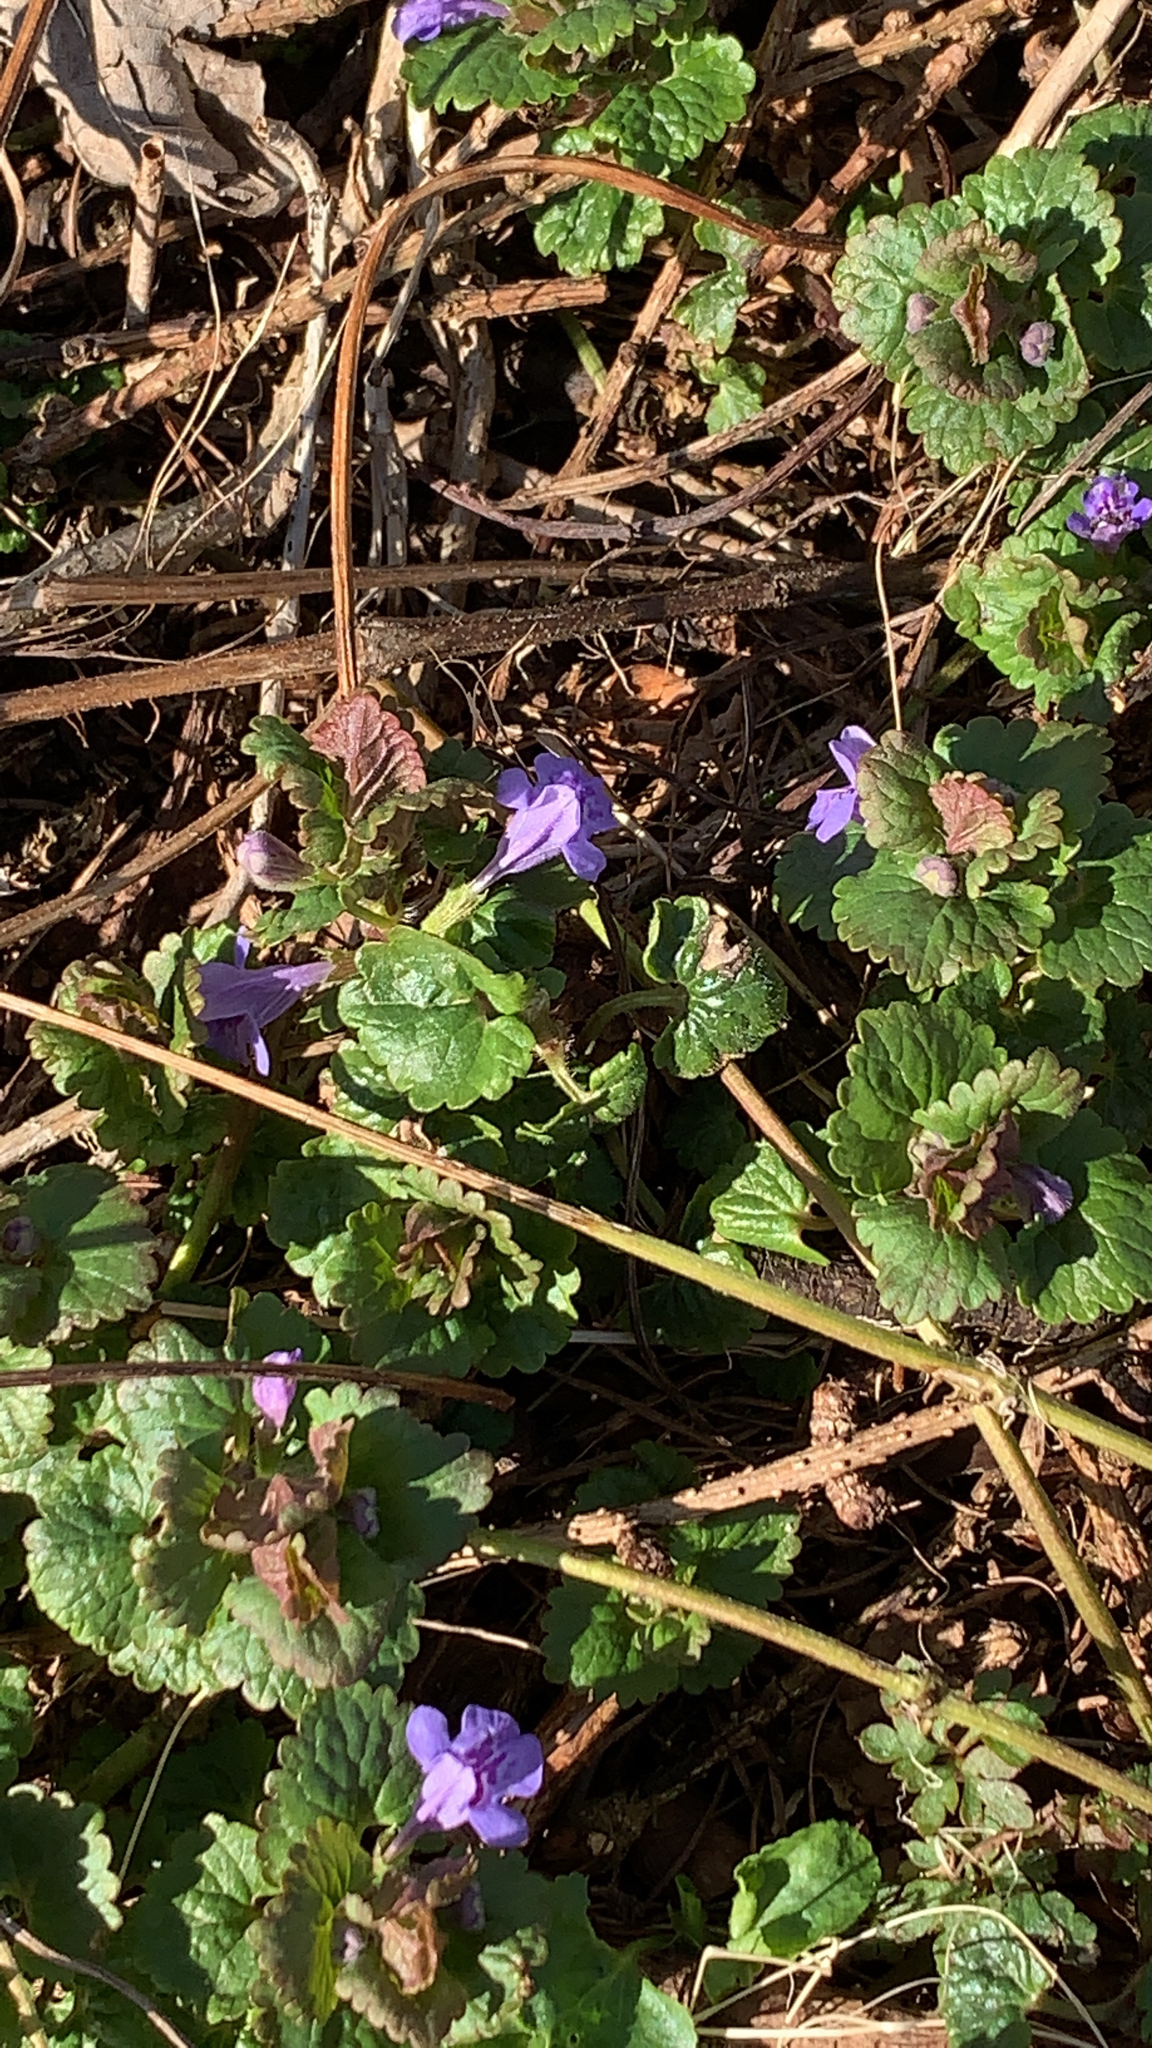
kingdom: Plantae
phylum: Tracheophyta
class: Magnoliopsida
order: Lamiales
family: Lamiaceae
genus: Glechoma
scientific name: Glechoma hederacea
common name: Ground ivy
